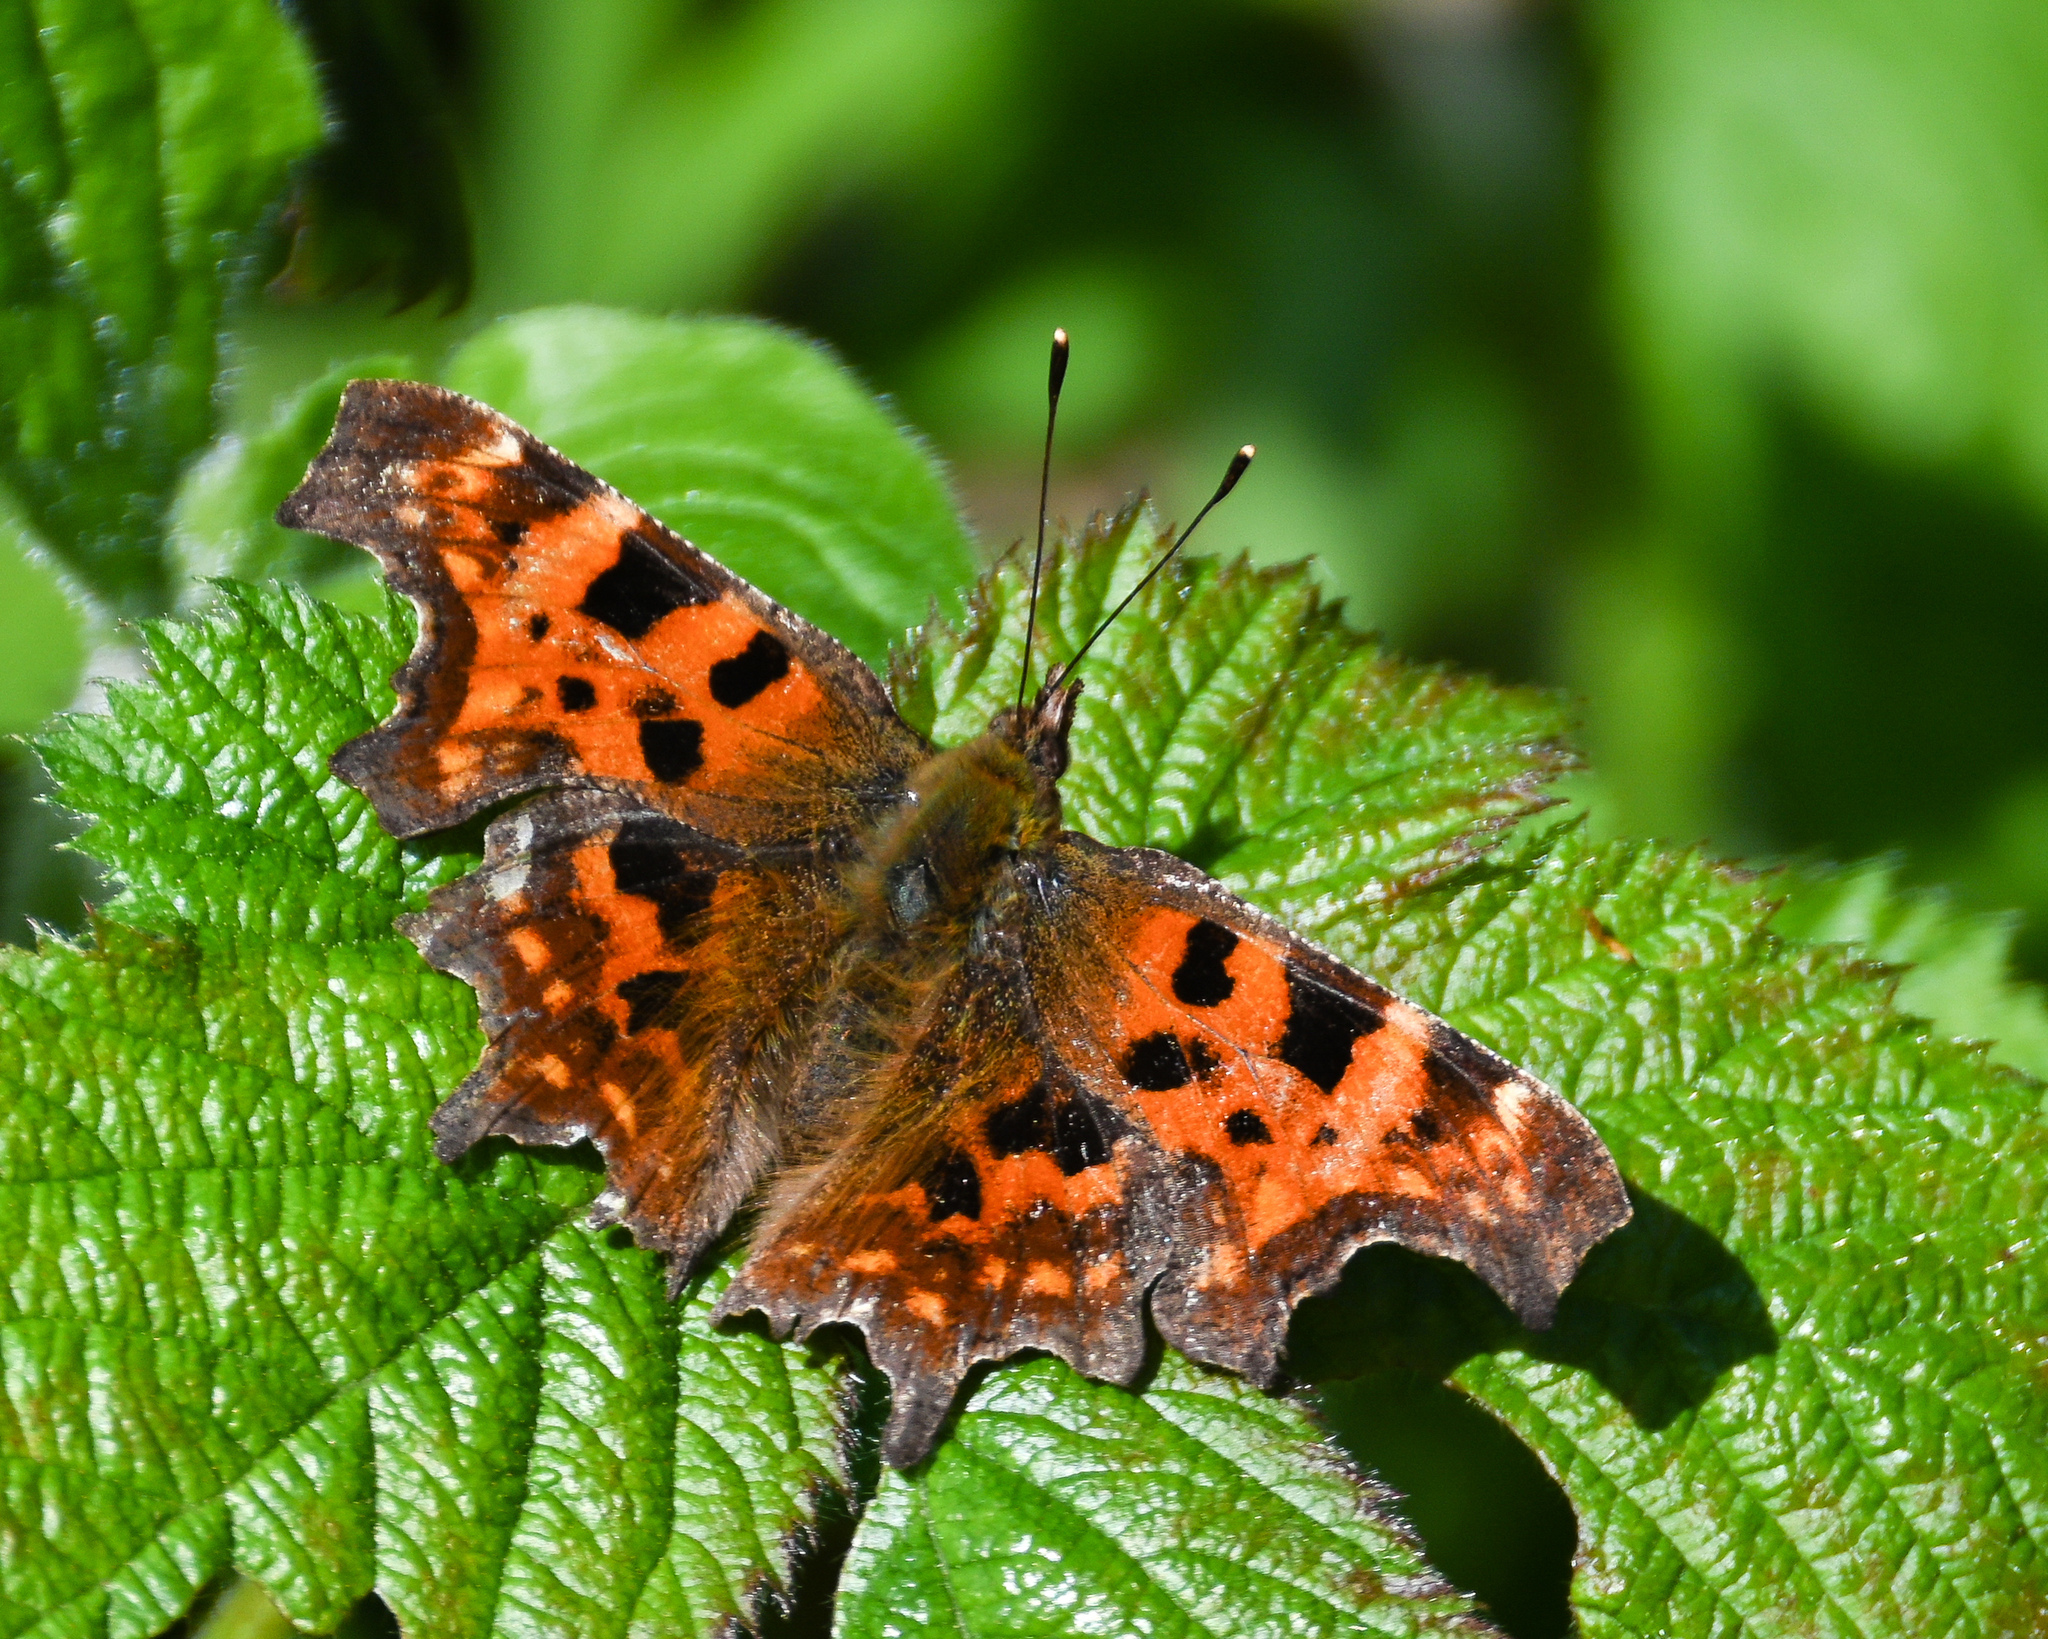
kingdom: Animalia
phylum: Arthropoda
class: Insecta
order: Lepidoptera
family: Nymphalidae
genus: Polygonia
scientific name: Polygonia c-album
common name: Comma
